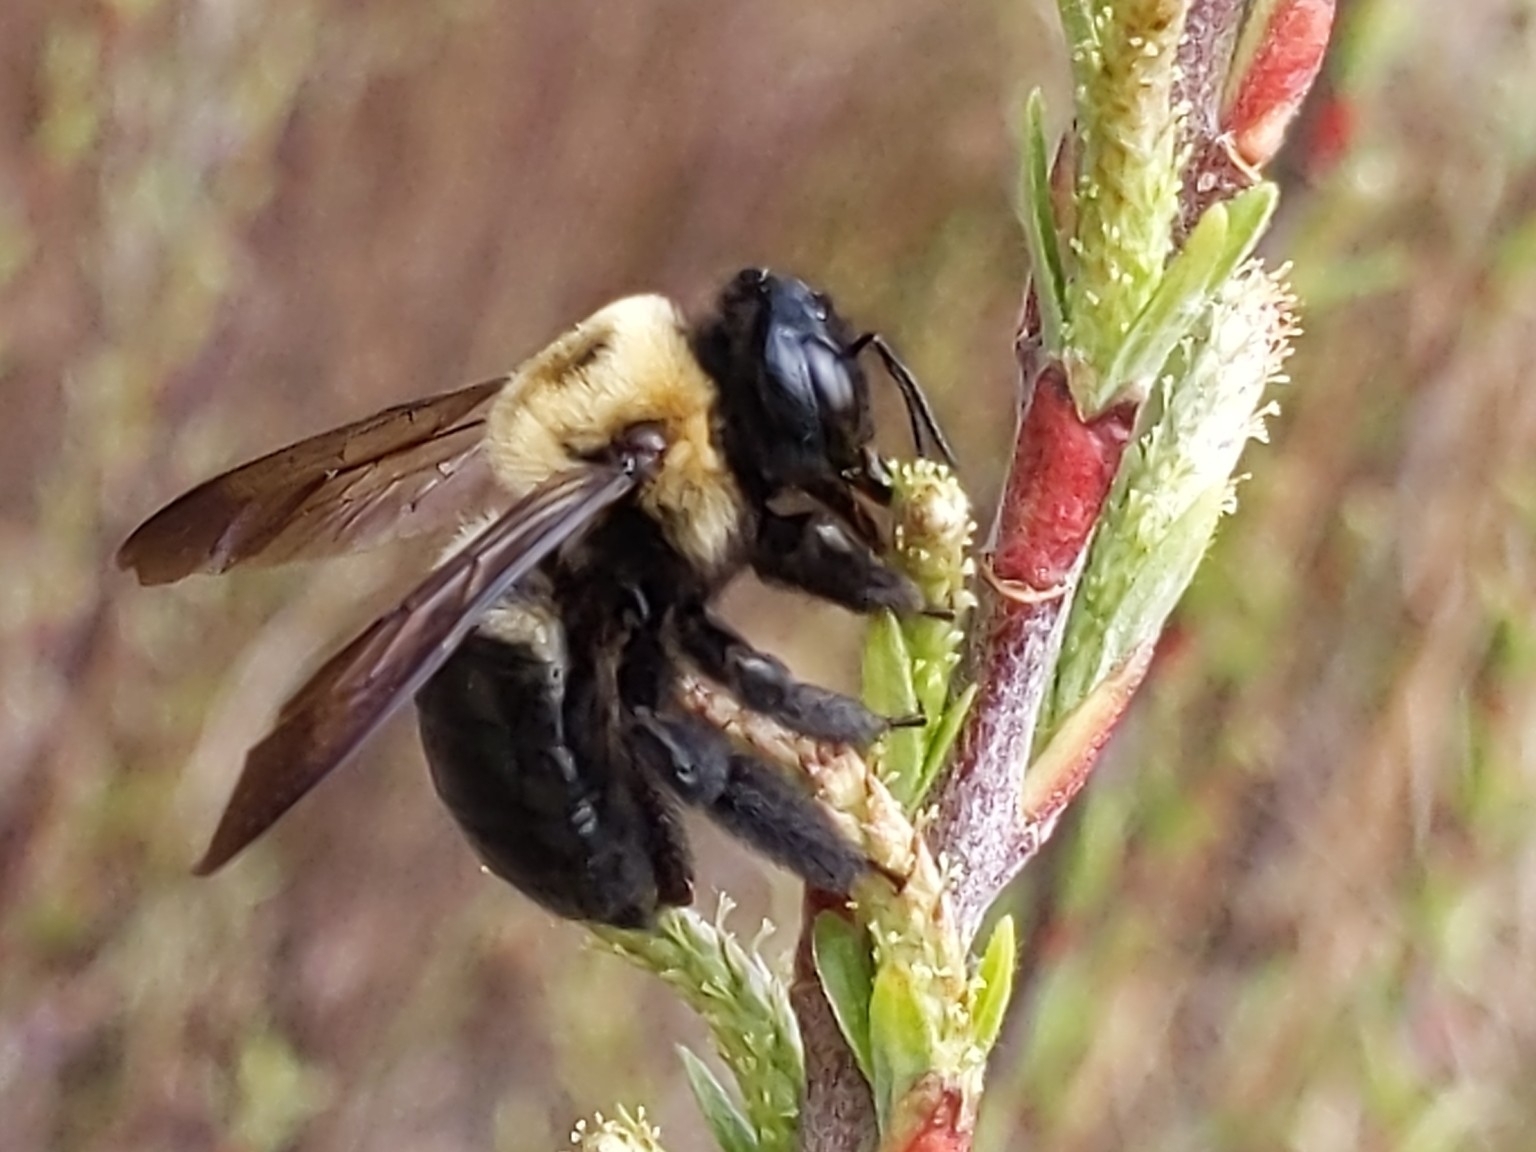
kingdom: Animalia
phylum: Arthropoda
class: Insecta
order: Hymenoptera
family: Apidae
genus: Xylocopa
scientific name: Xylocopa virginica
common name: Carpenter bee
